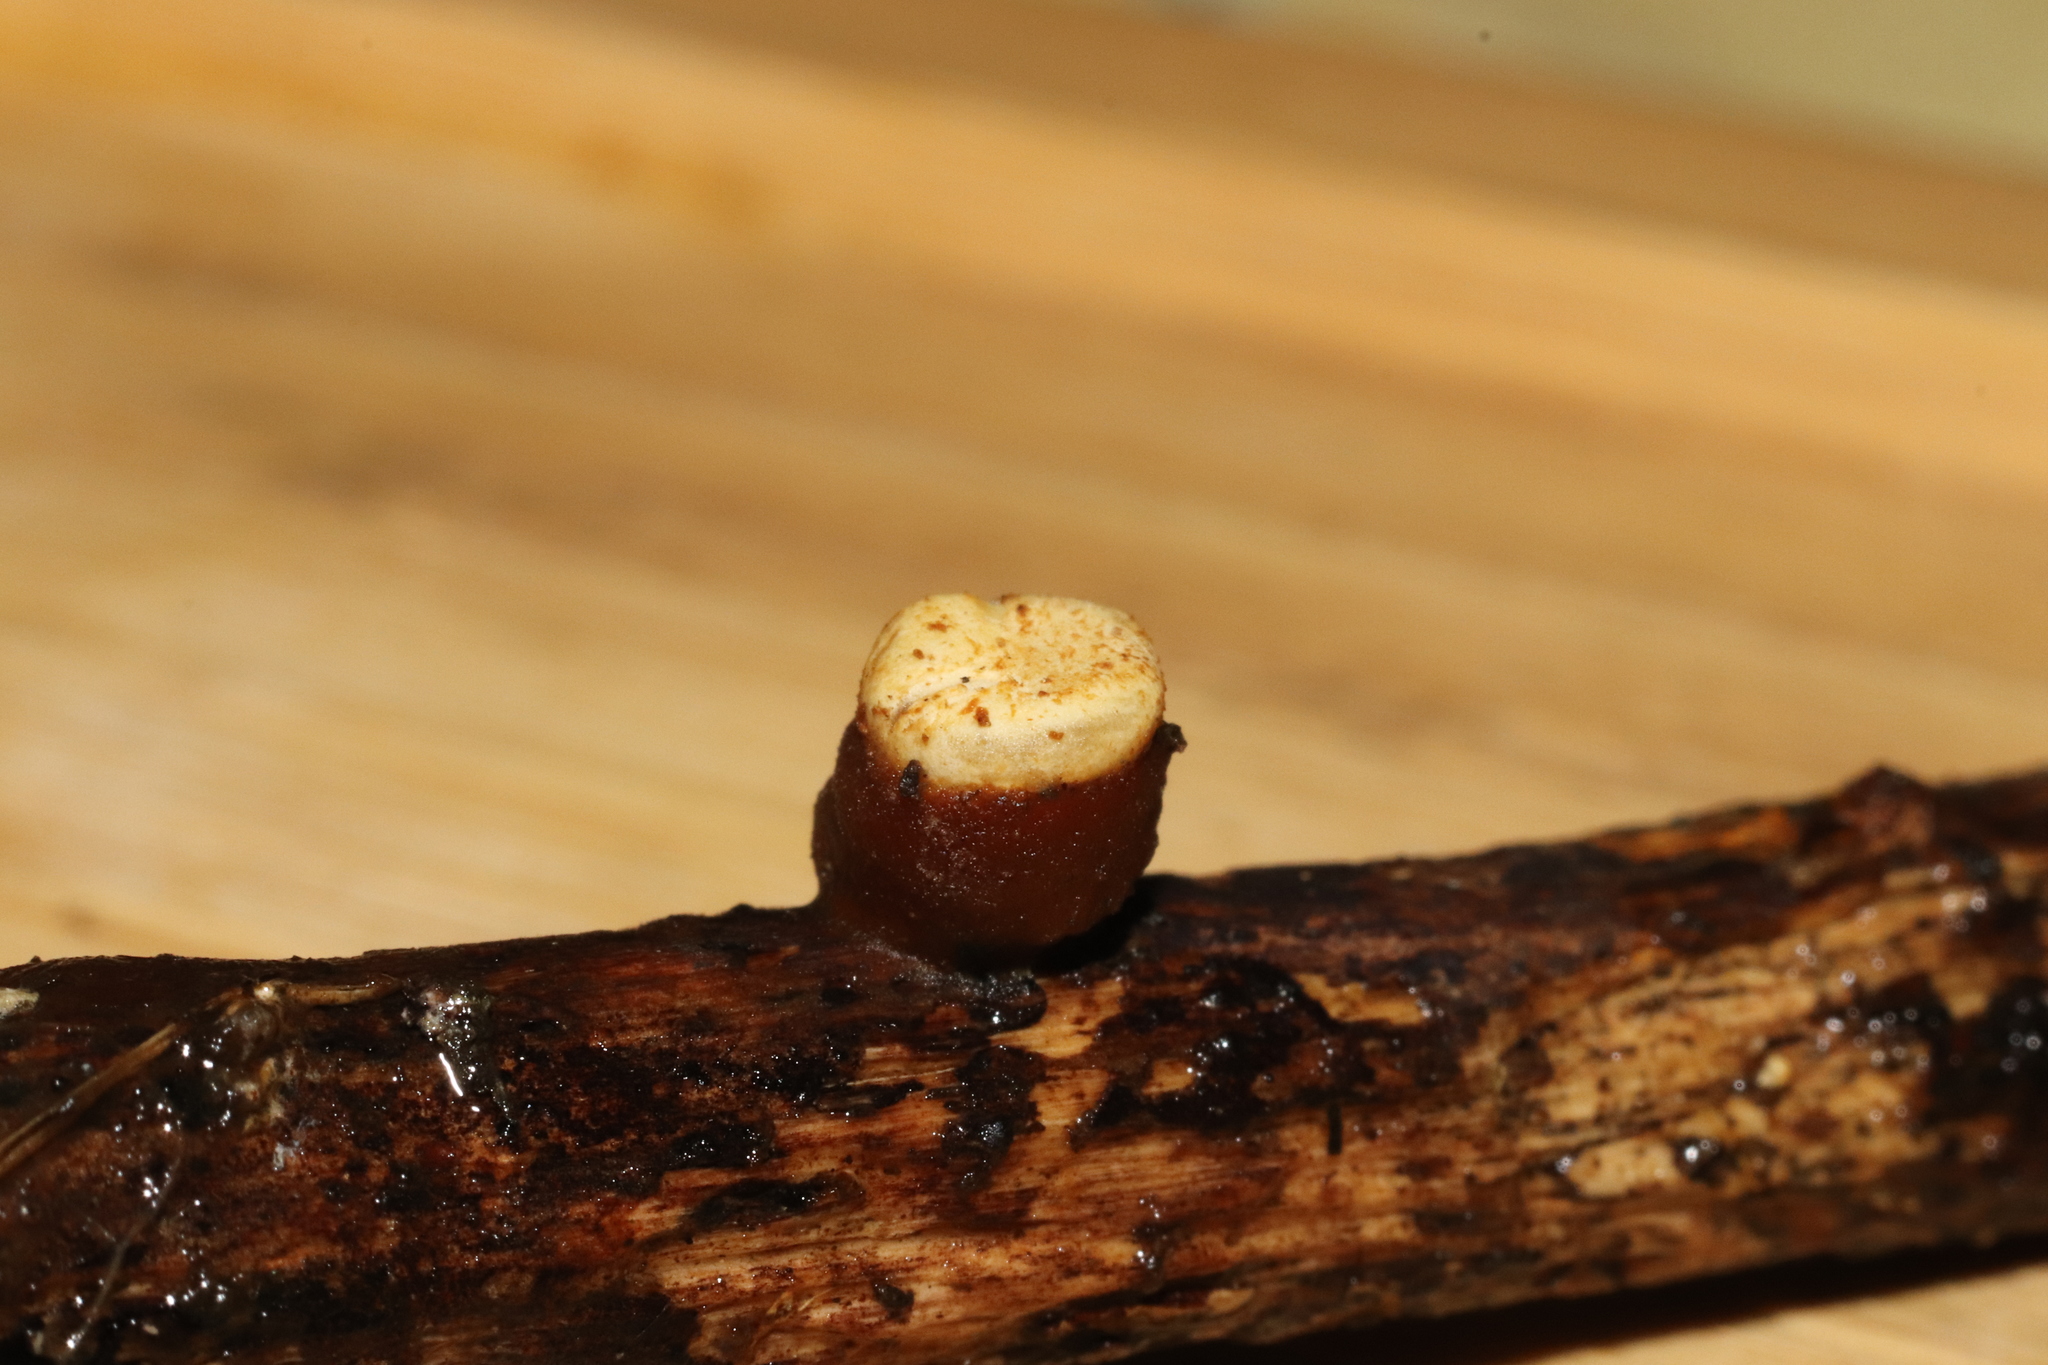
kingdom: Fungi
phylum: Basidiomycota
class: Agaricomycetes
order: Agaricales
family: Nidulariaceae
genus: Crucibulum
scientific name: Crucibulum laeve
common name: Common bird's nest
